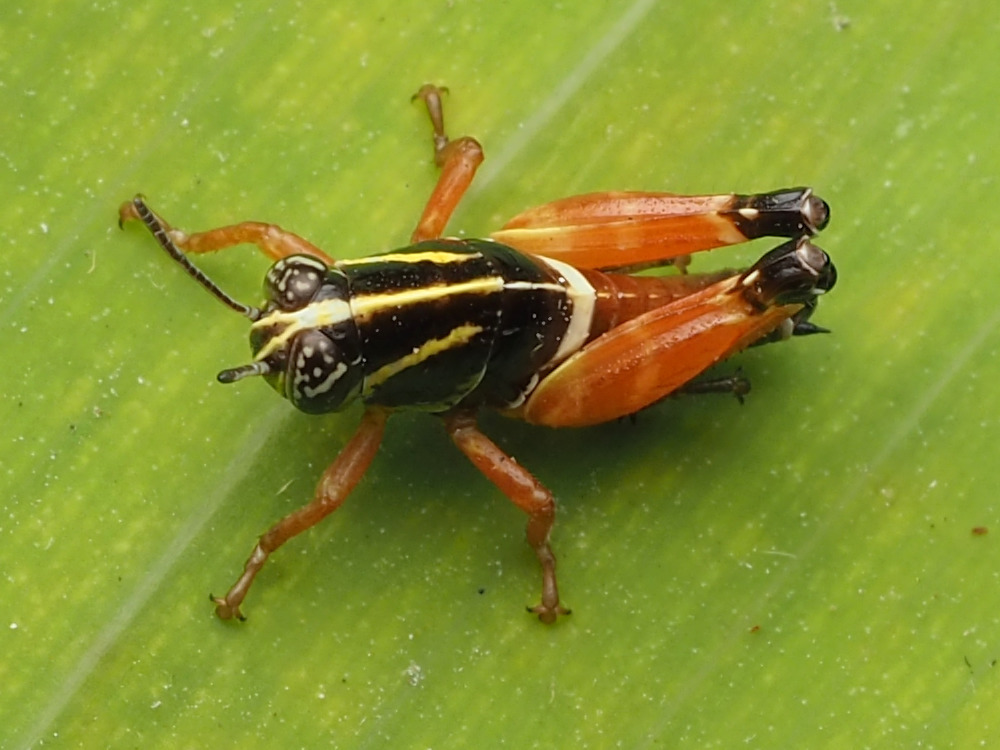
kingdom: Animalia
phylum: Arthropoda
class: Insecta
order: Orthoptera
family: Acrididae
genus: Aidemona
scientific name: Aidemona azteca
